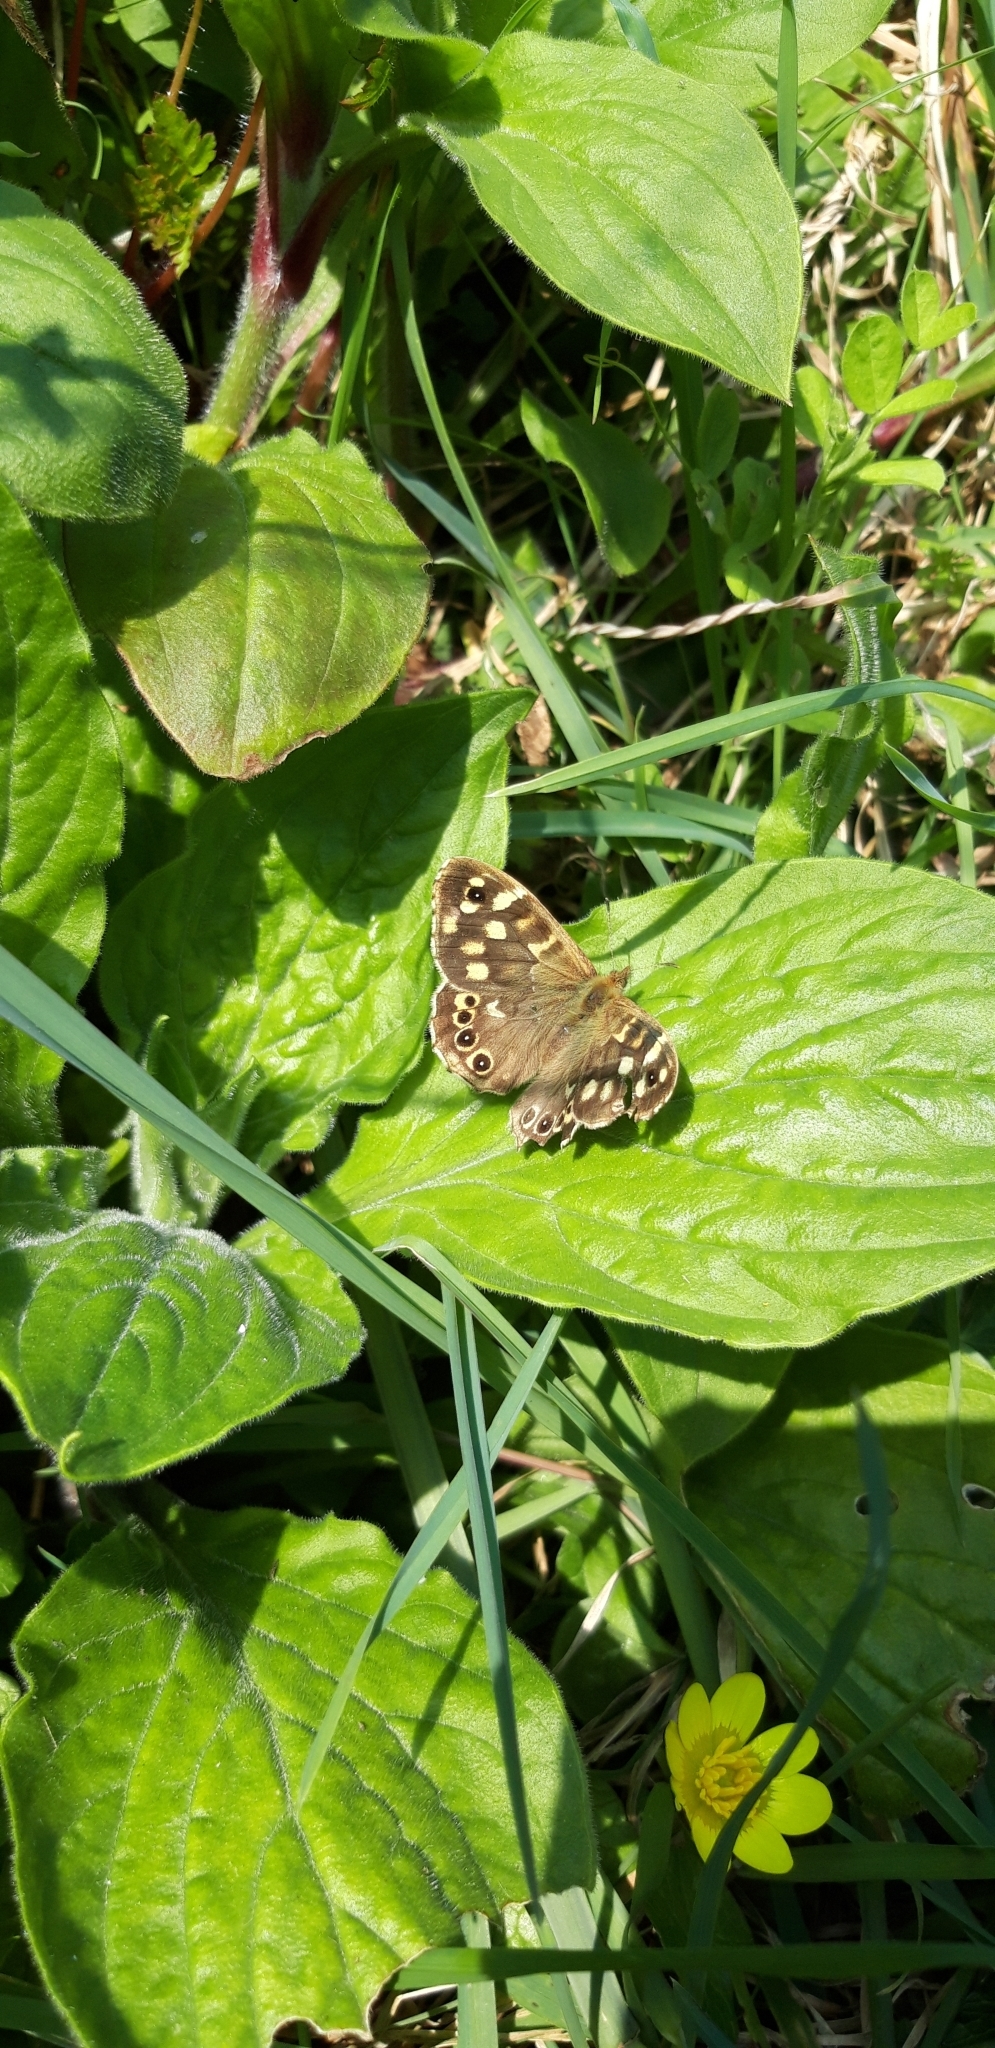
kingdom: Animalia
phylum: Arthropoda
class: Insecta
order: Lepidoptera
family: Nymphalidae
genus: Pararge
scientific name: Pararge aegeria
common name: Speckled wood
